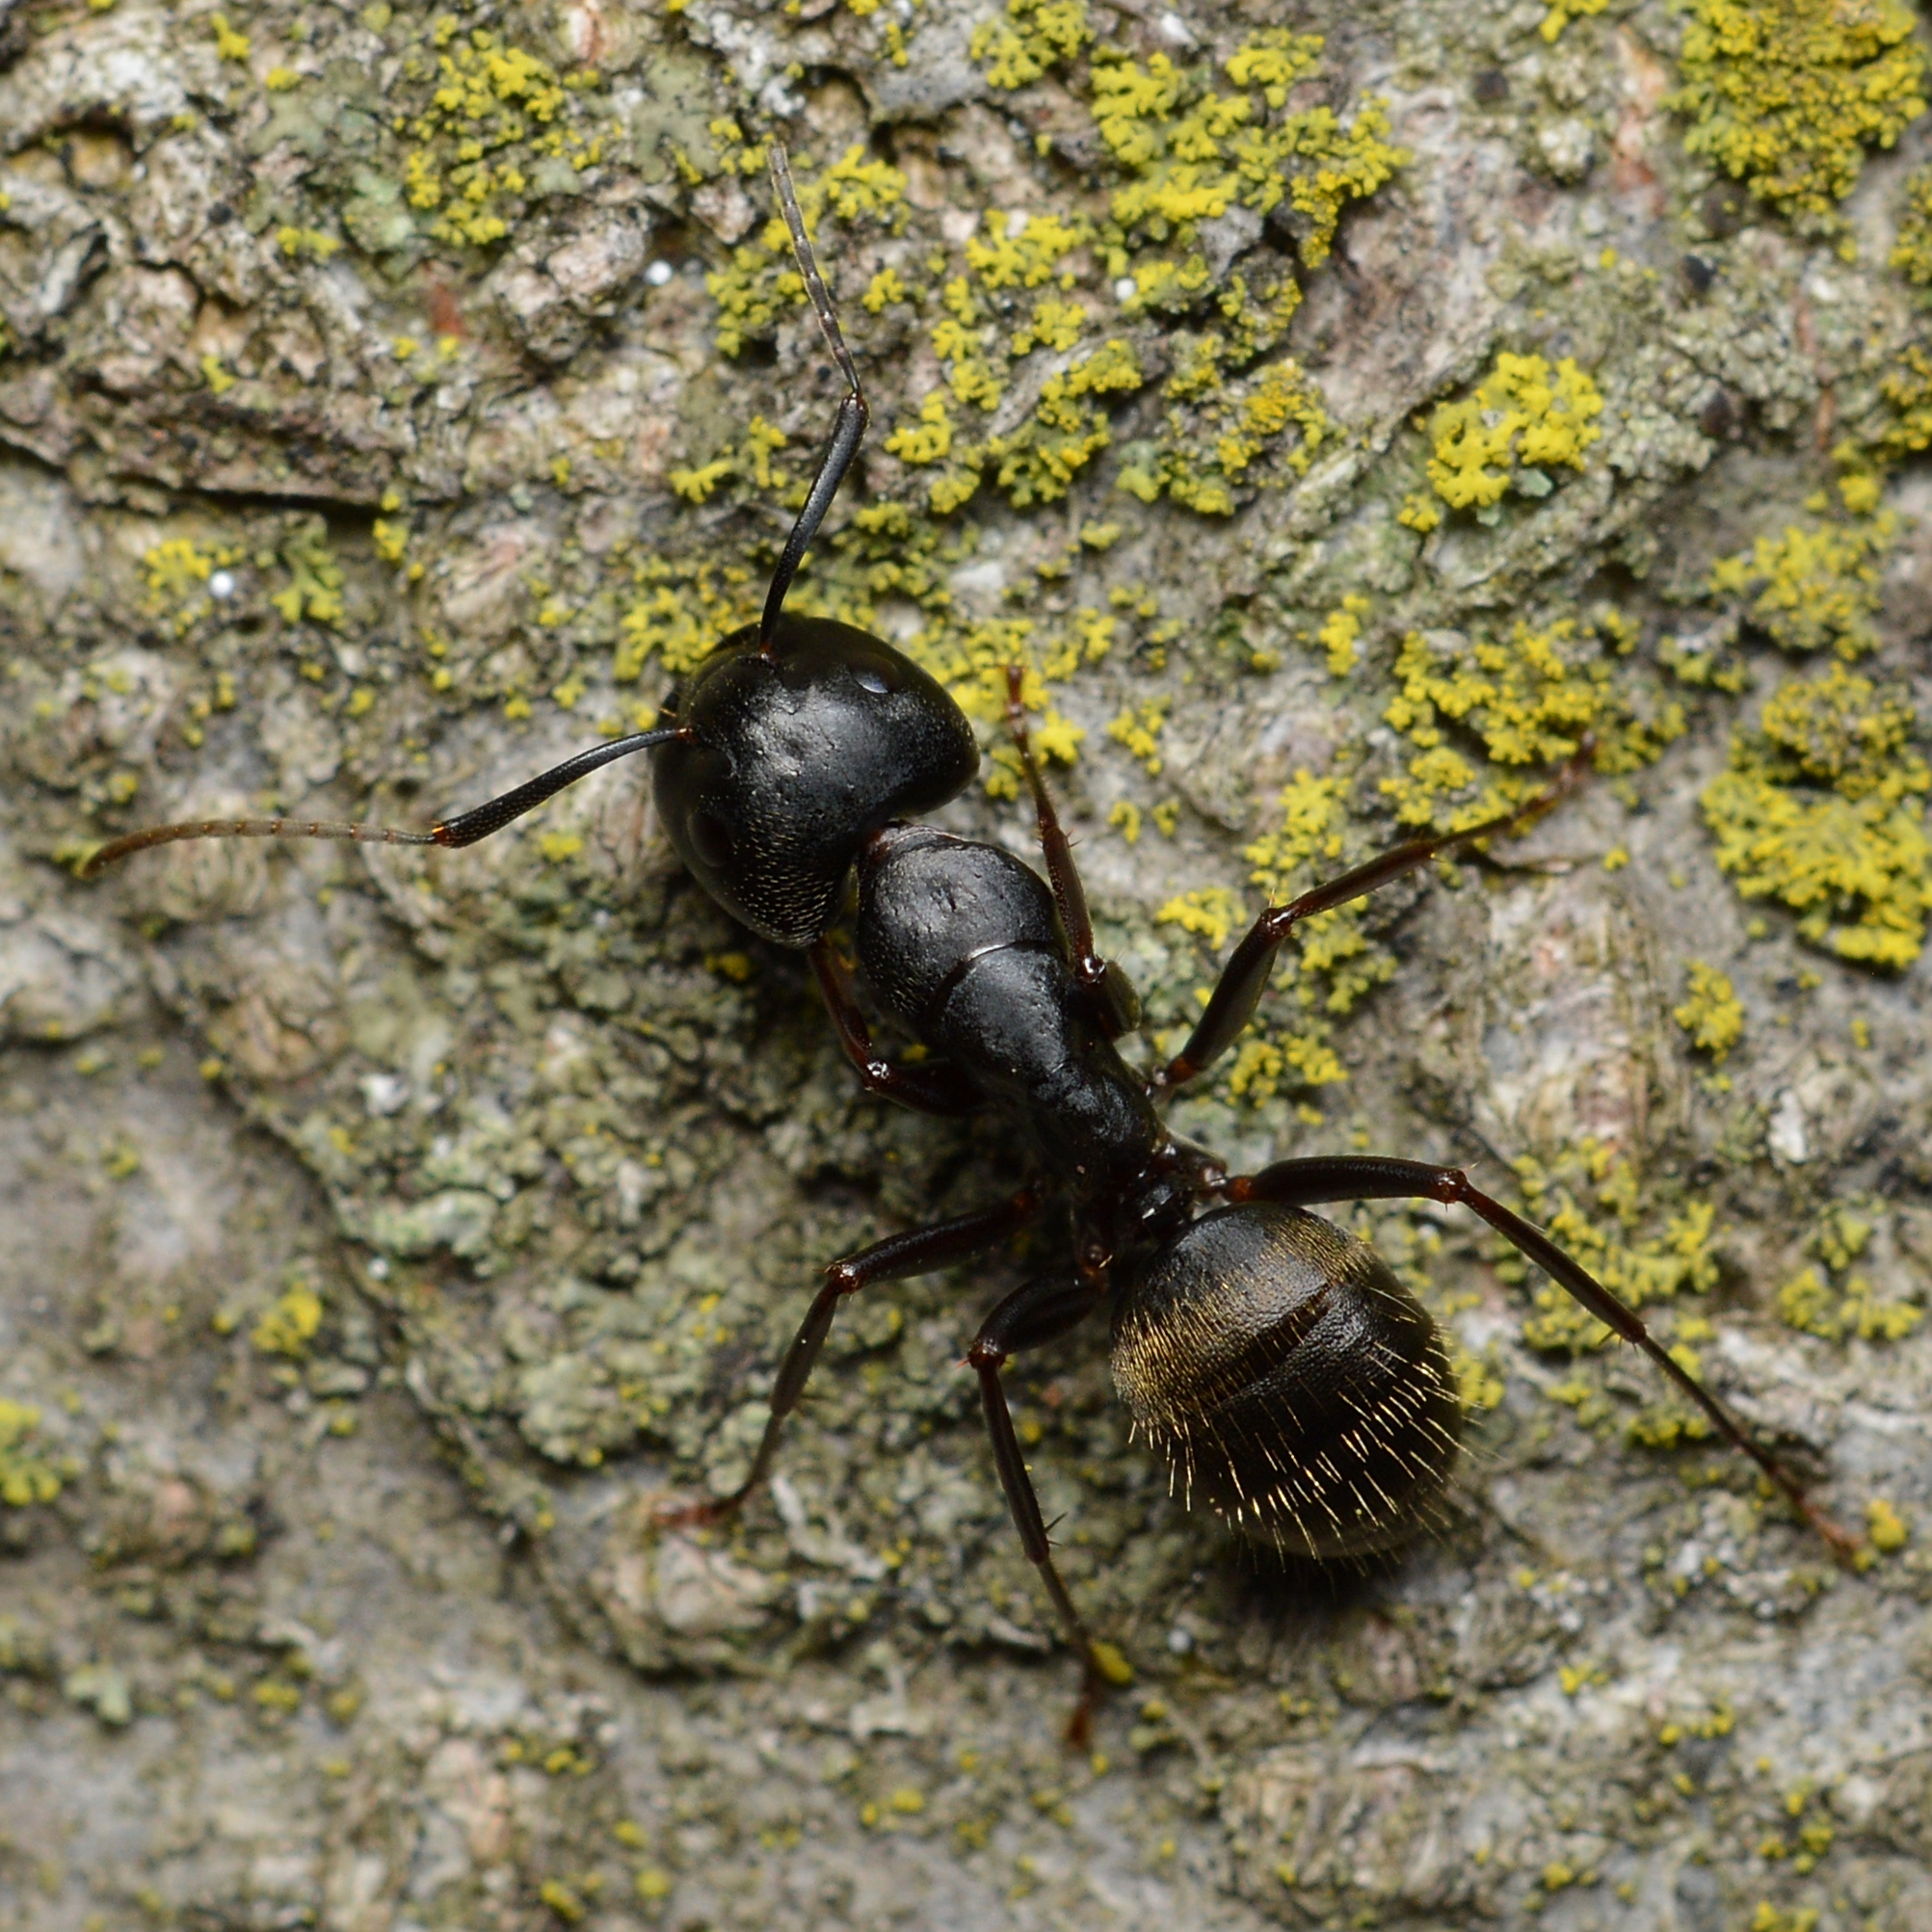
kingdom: Animalia
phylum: Arthropoda
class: Insecta
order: Hymenoptera
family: Formicidae
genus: Camponotus
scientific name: Camponotus pennsylvanicus
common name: Black carpenter ant
